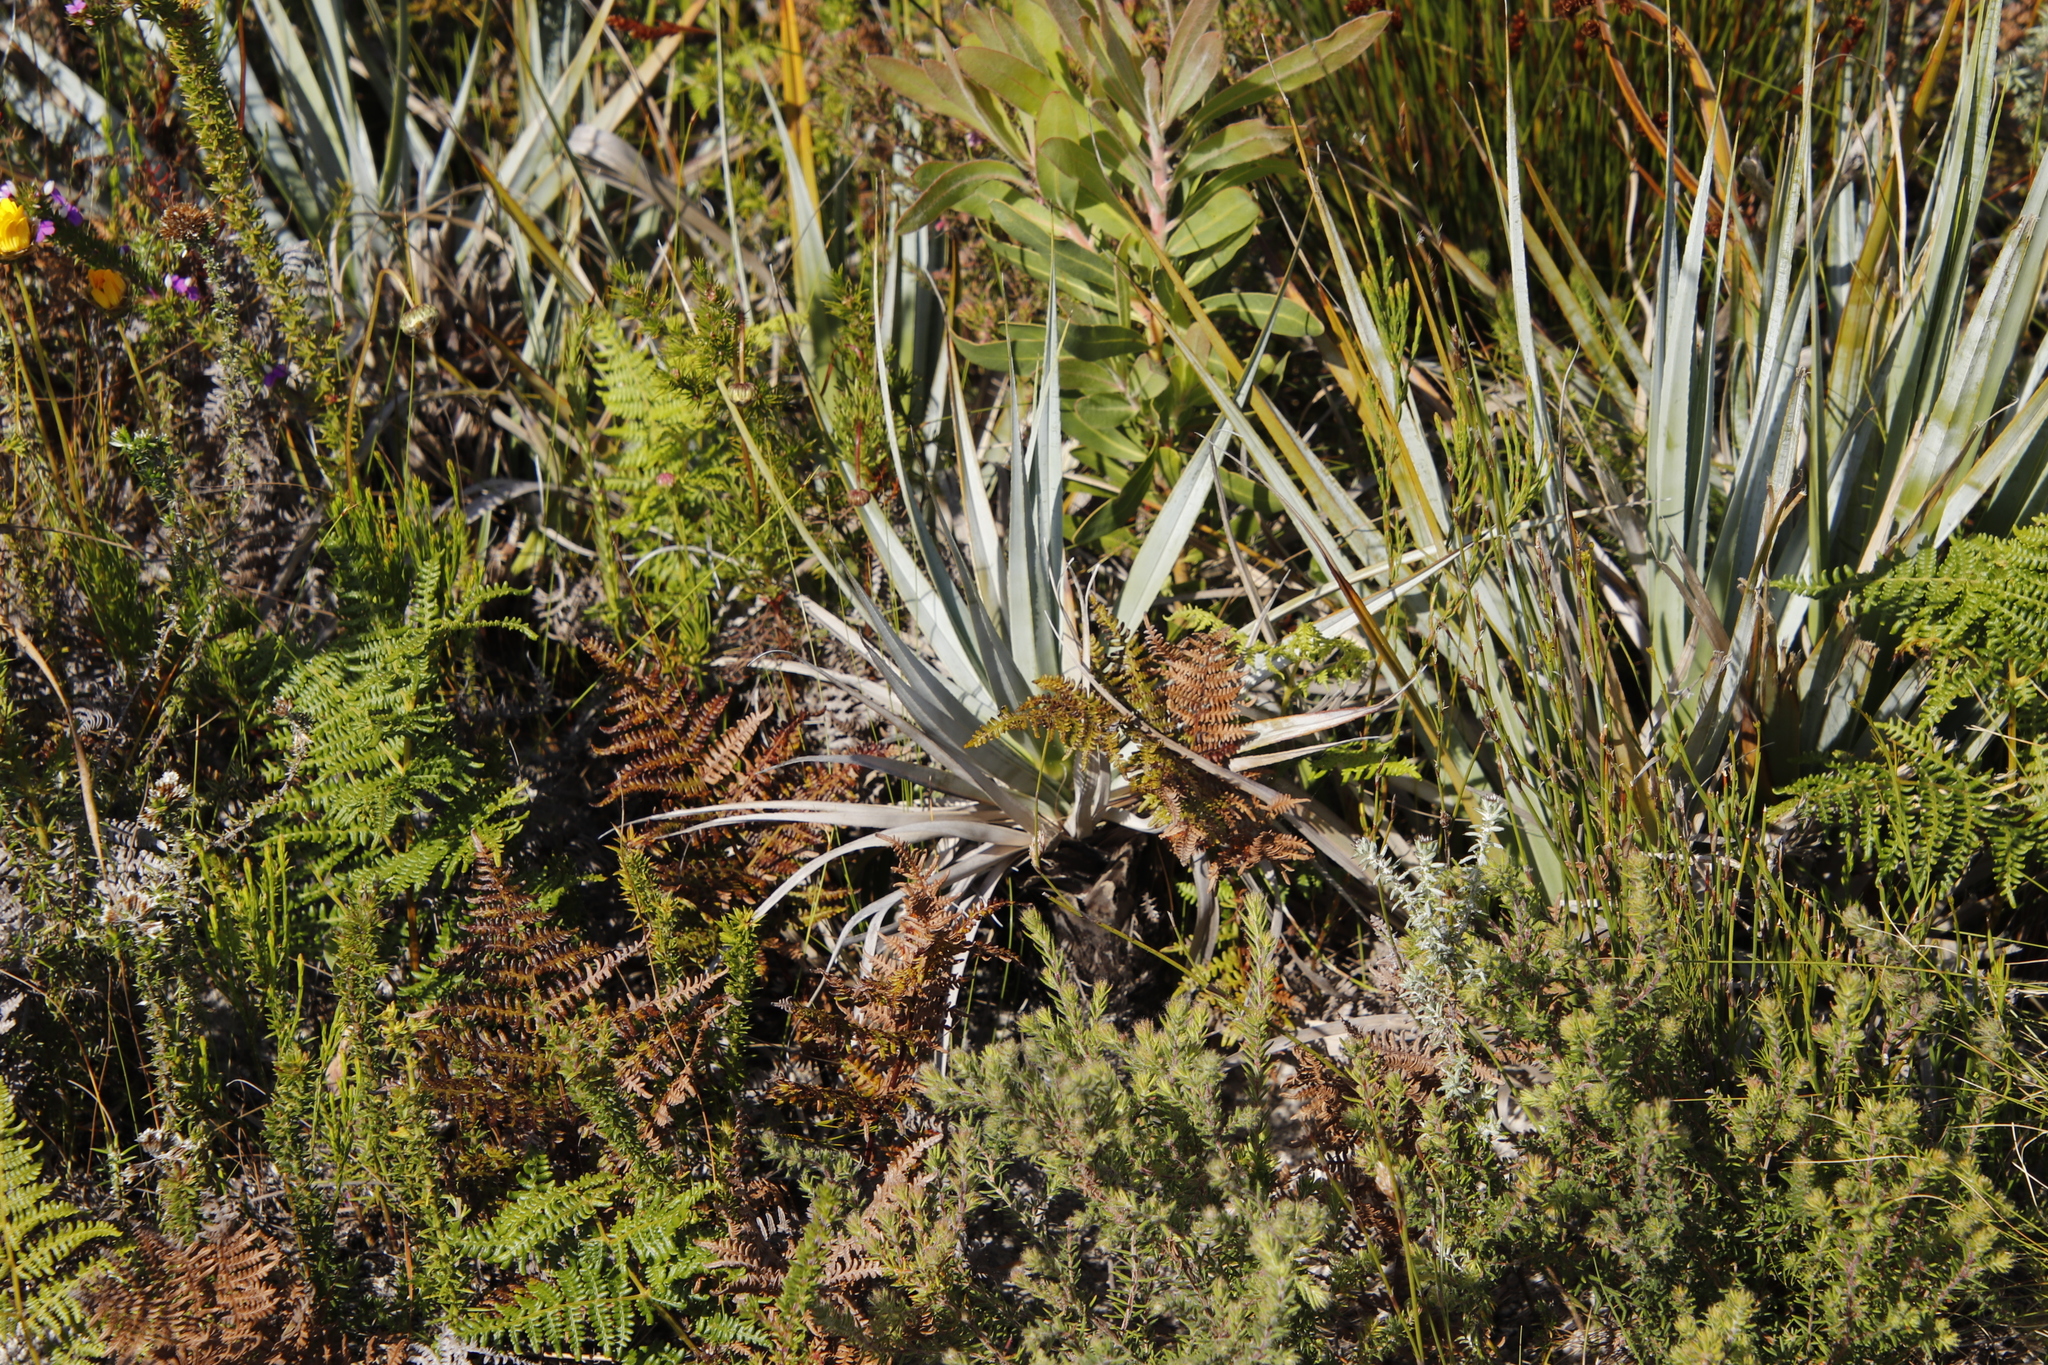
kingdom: Plantae
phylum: Tracheophyta
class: Liliopsida
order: Poales
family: Thurniaceae
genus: Prionium
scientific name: Prionium serratum
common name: Palmiet
